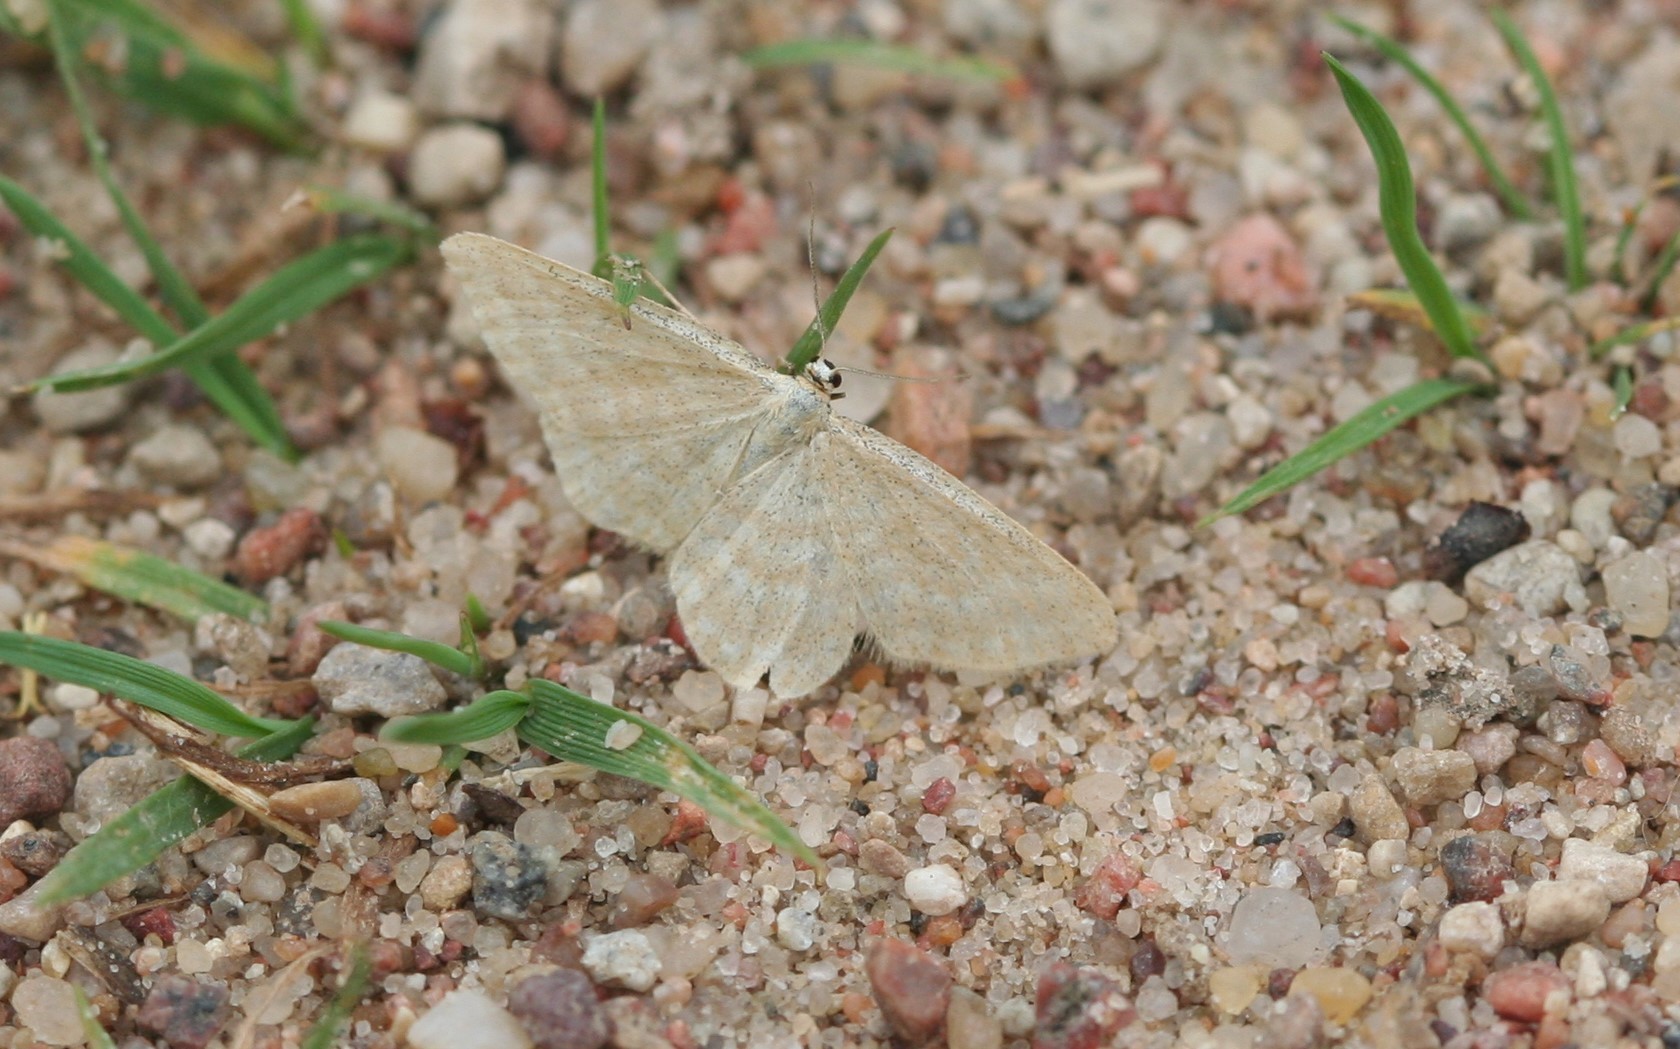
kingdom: Animalia
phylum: Arthropoda
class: Insecta
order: Lepidoptera
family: Geometridae
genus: Idaea
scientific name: Idaea pallidata
